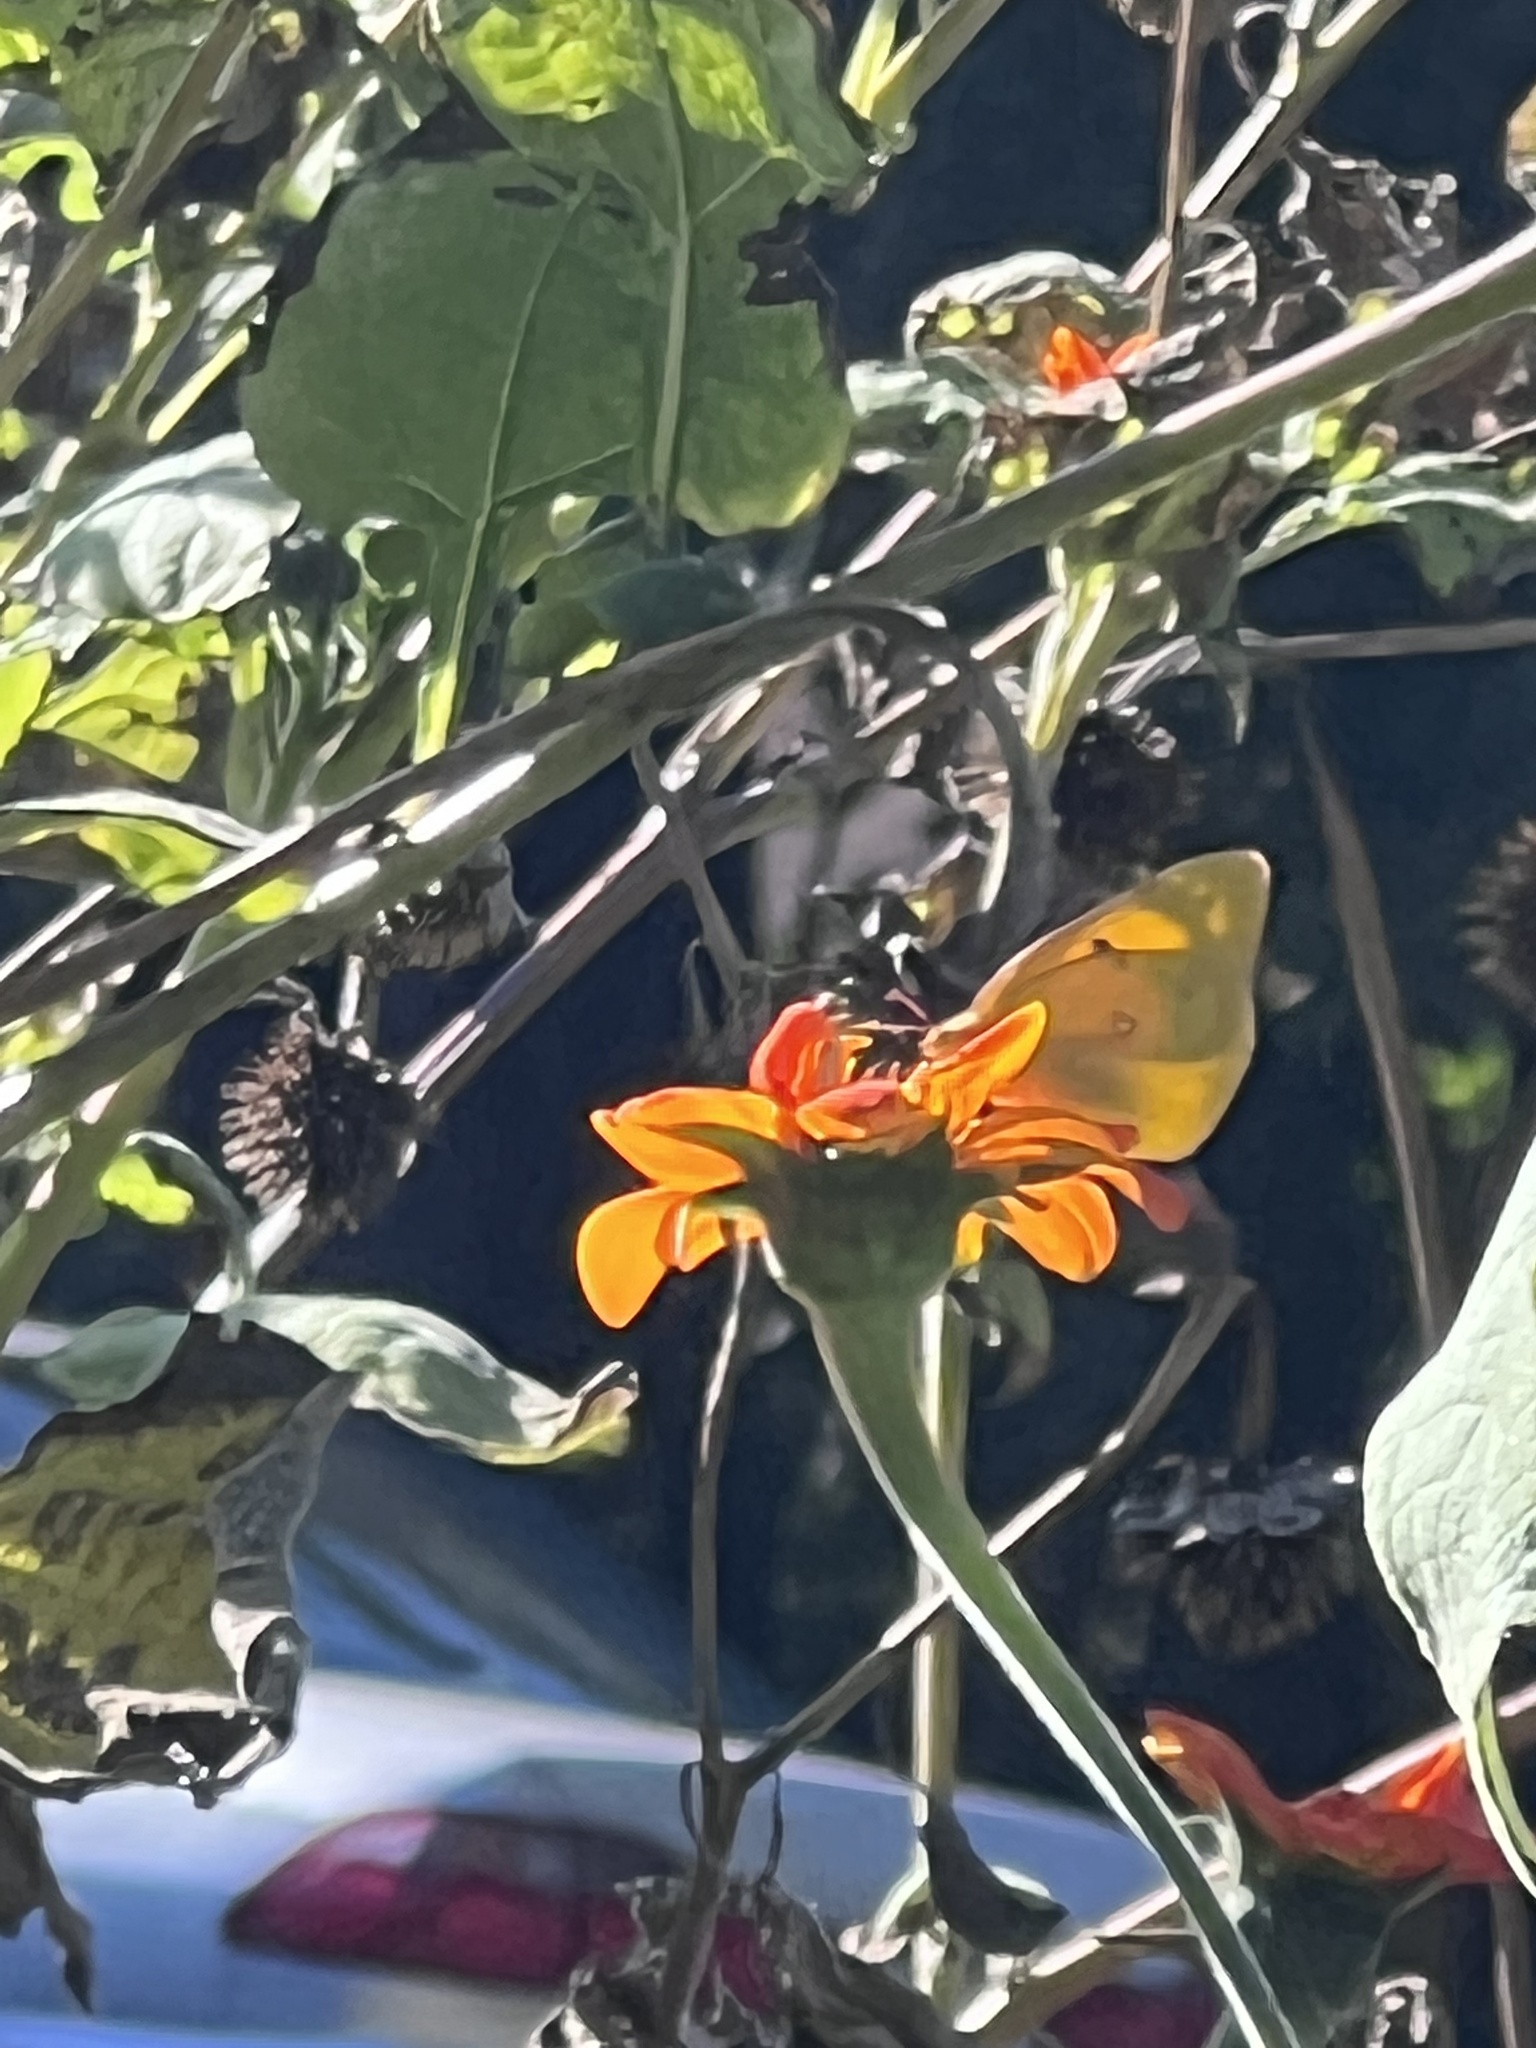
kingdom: Animalia
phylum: Arthropoda
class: Insecta
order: Lepidoptera
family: Pieridae
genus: Colias
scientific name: Colias eurytheme
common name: Alfalfa butterfly
